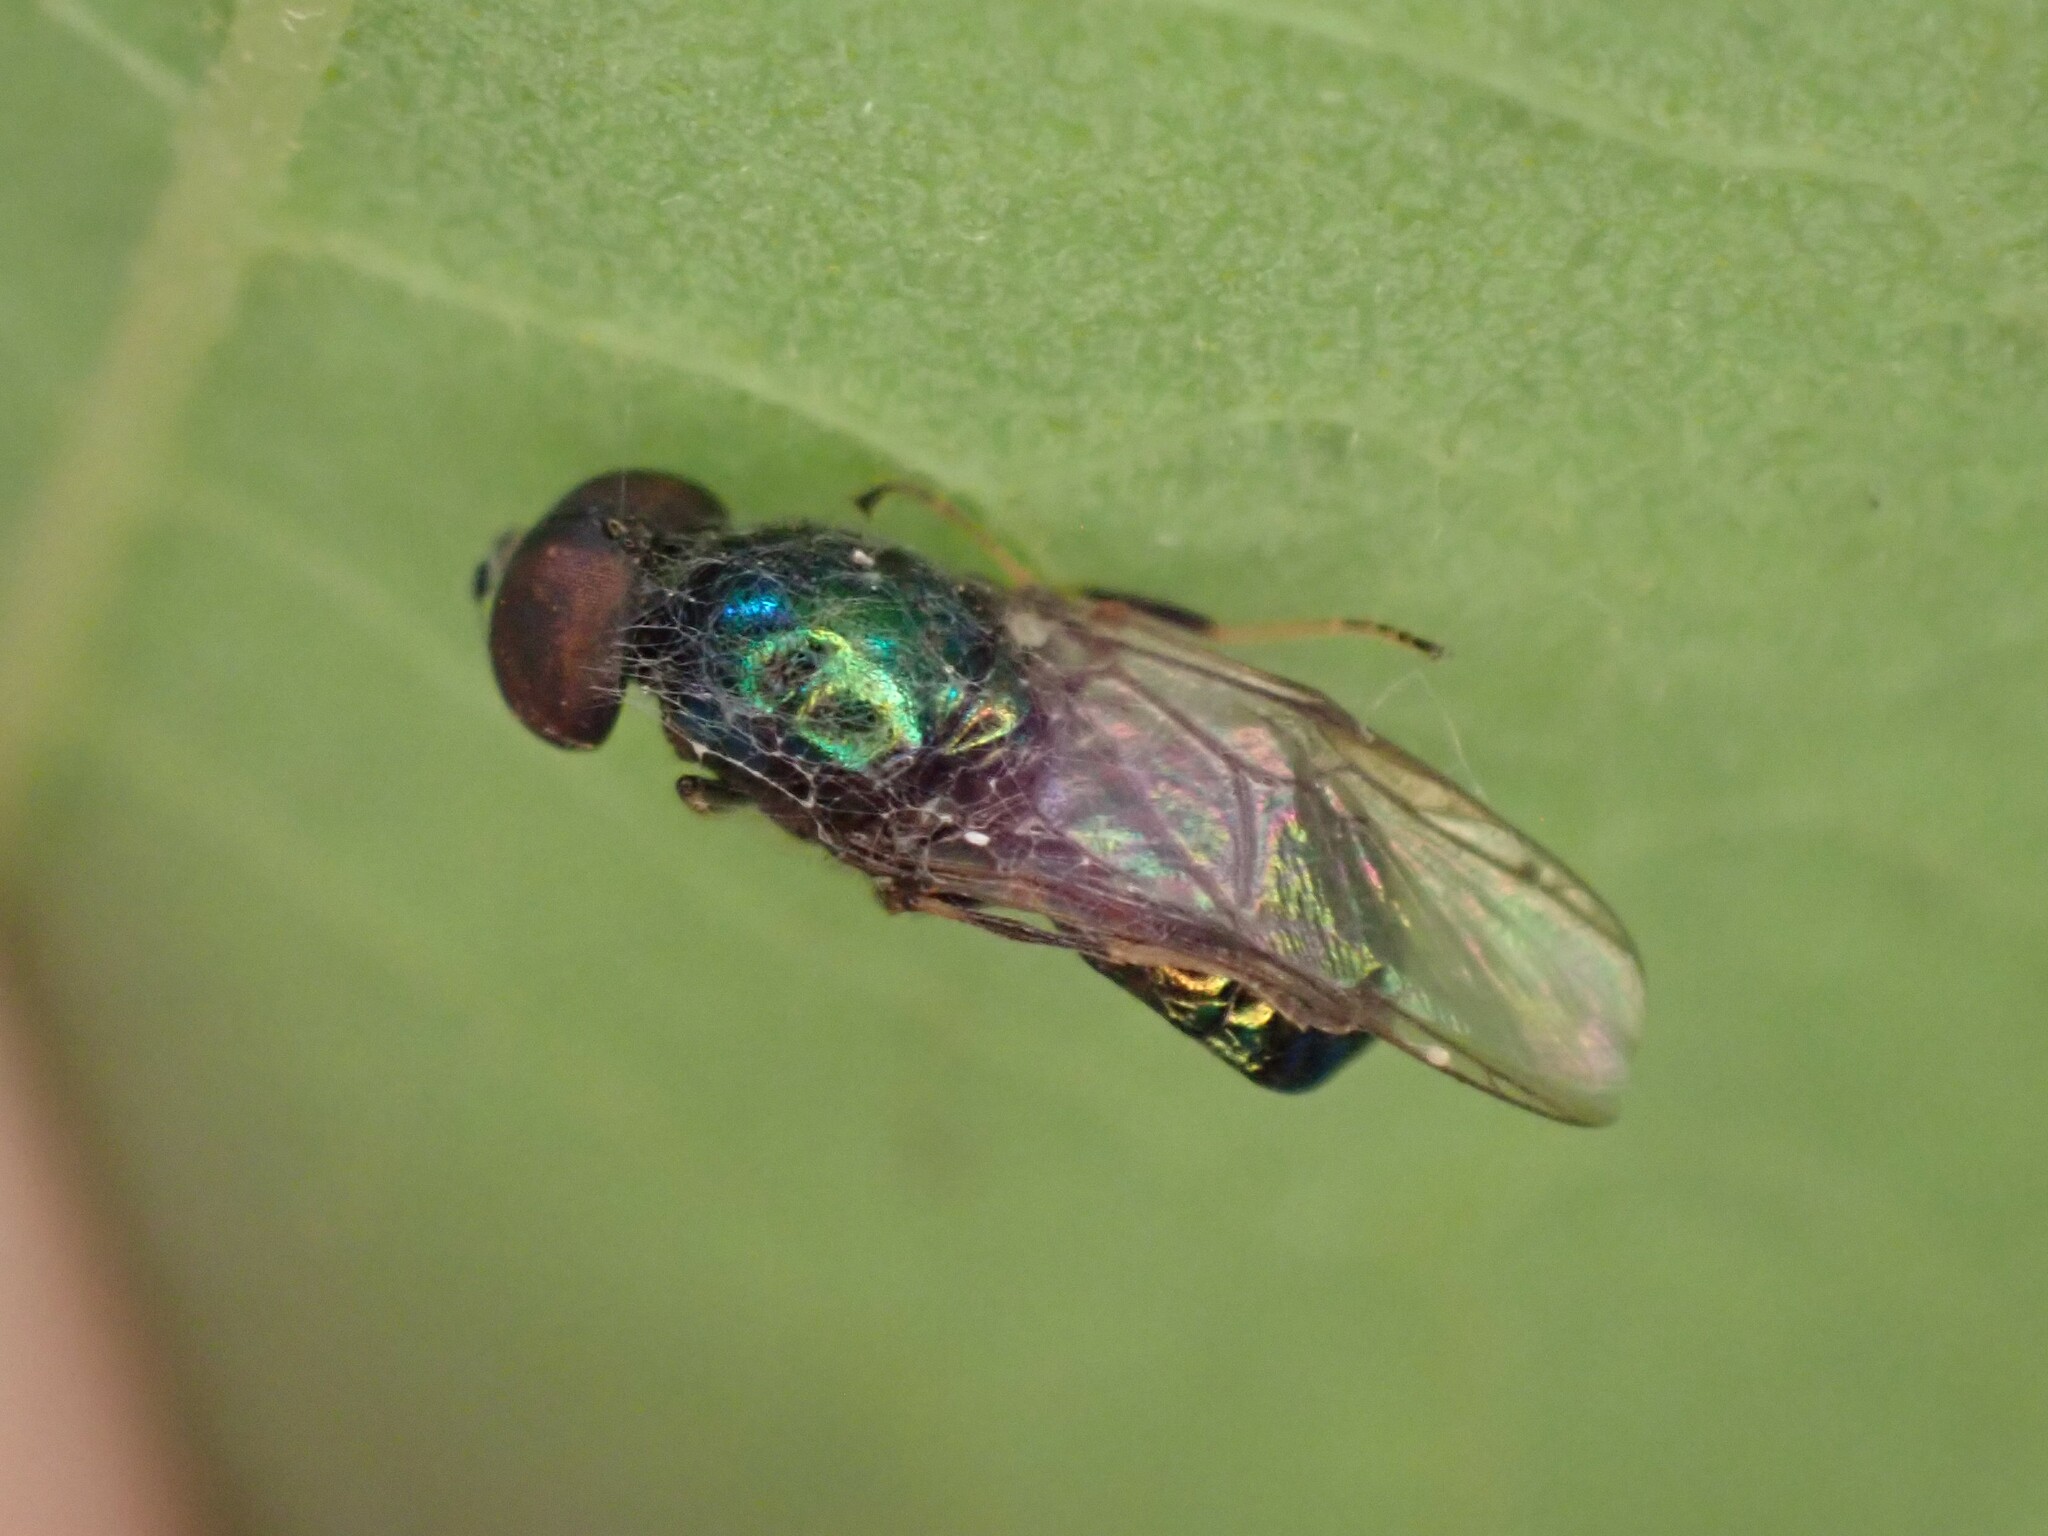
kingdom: Animalia
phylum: Arthropoda
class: Insecta
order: Diptera
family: Stratiomyidae
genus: Microchrysa
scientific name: Microchrysa polita
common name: Black-horned gem
